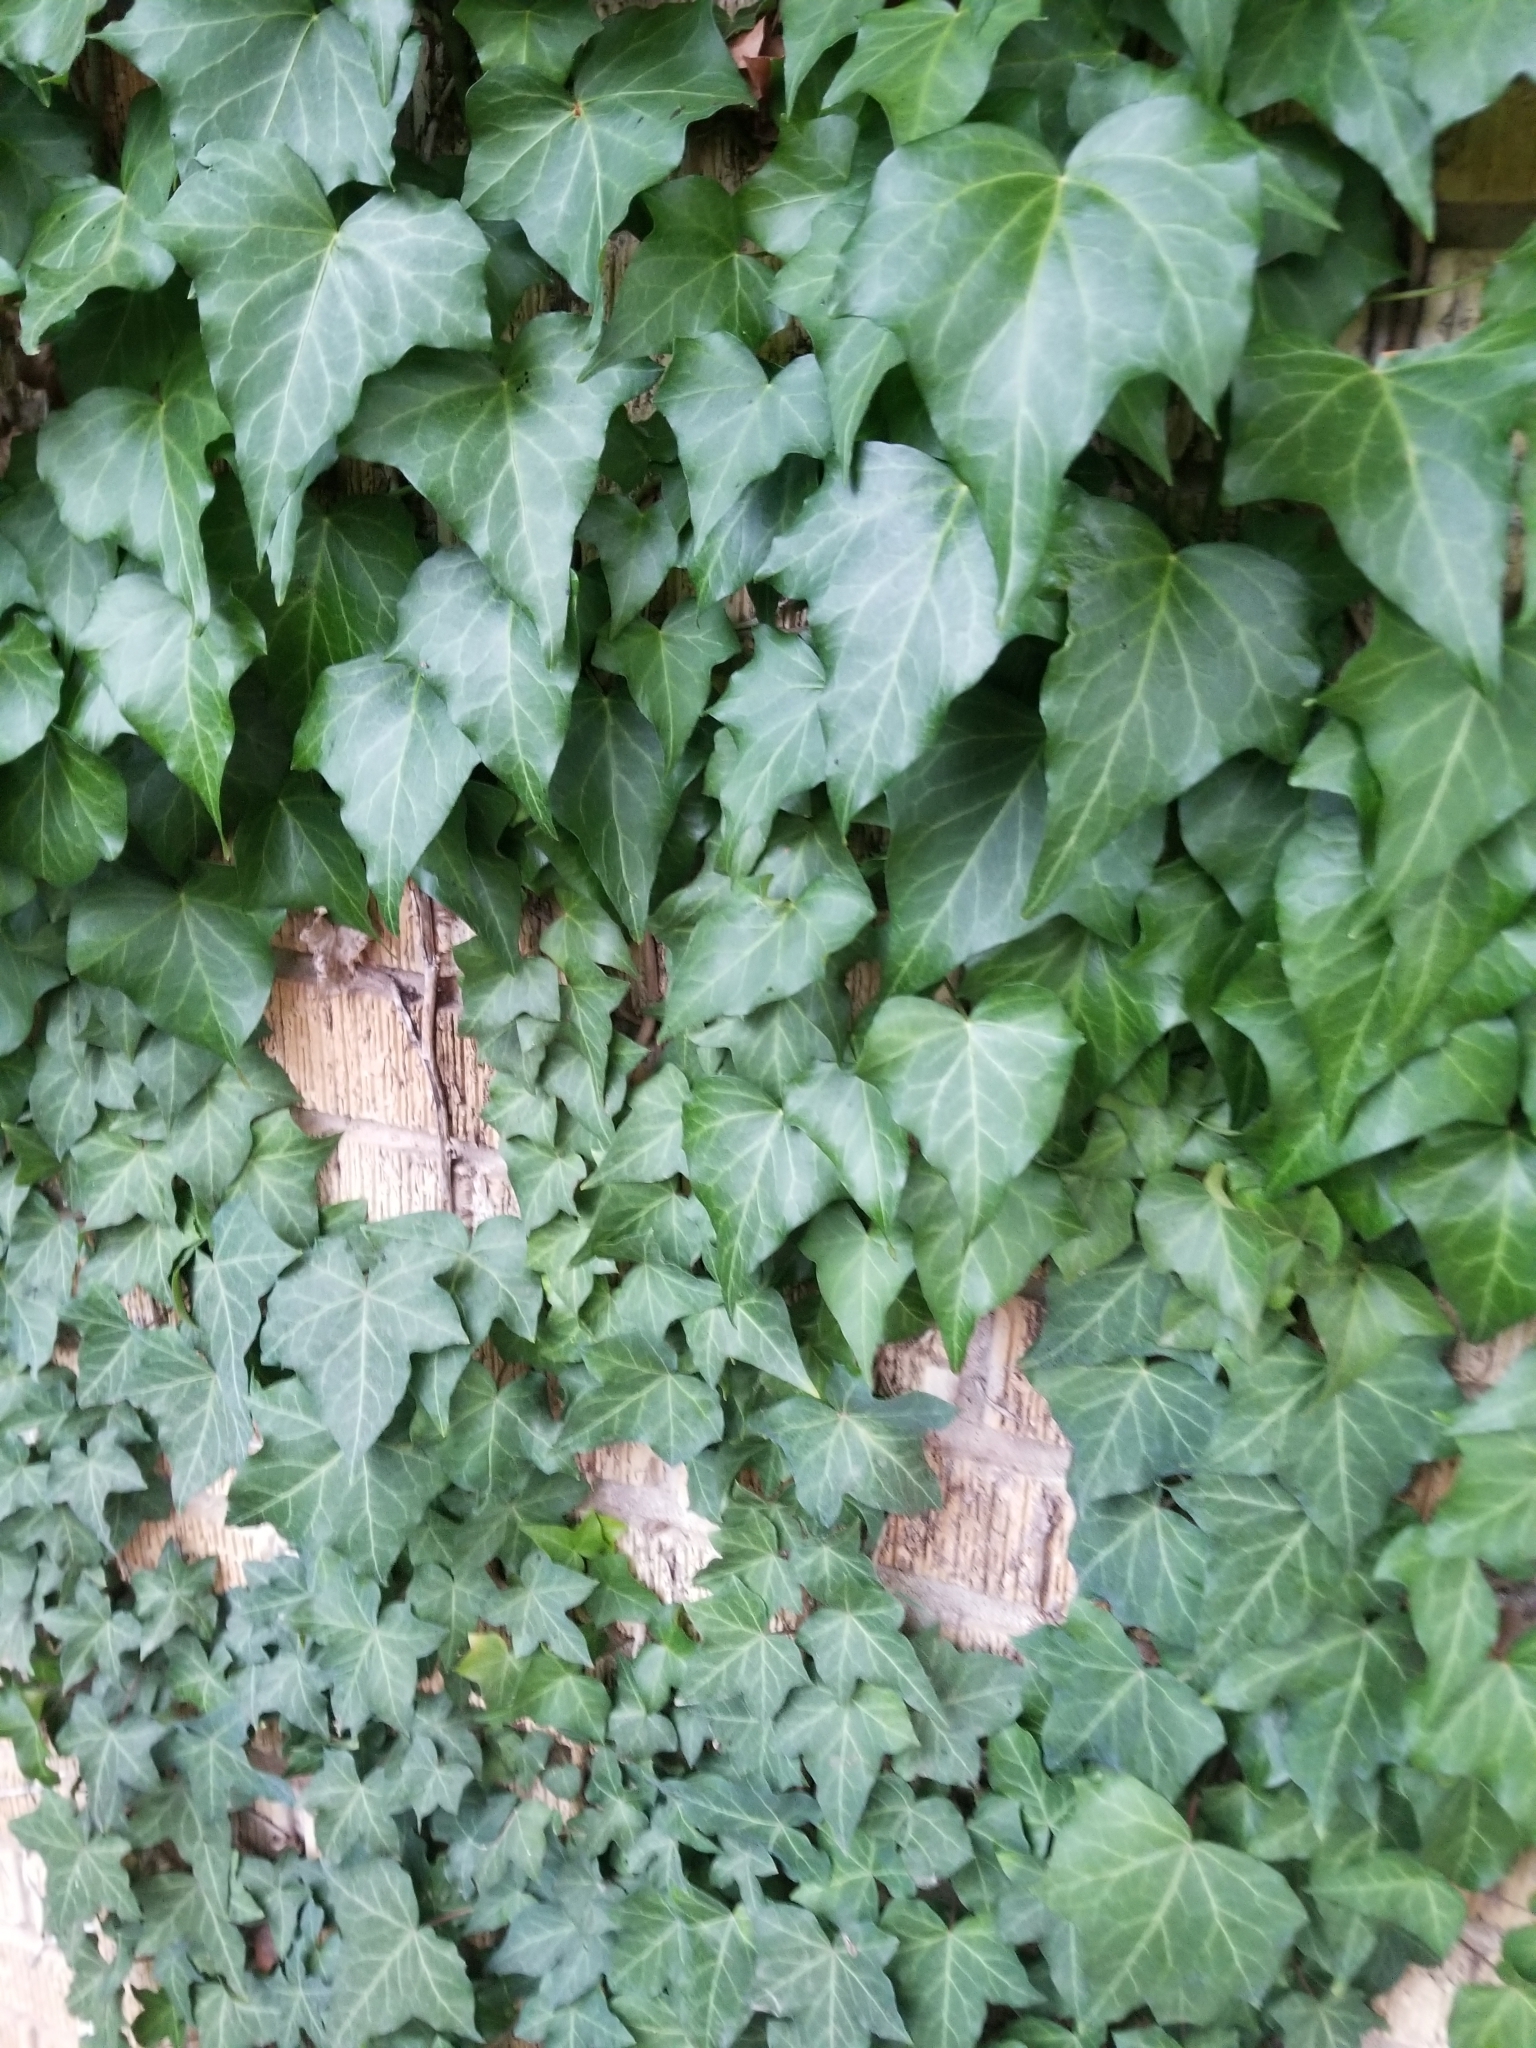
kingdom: Plantae
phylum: Tracheophyta
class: Magnoliopsida
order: Apiales
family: Araliaceae
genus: Hedera
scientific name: Hedera helix
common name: Ivy
